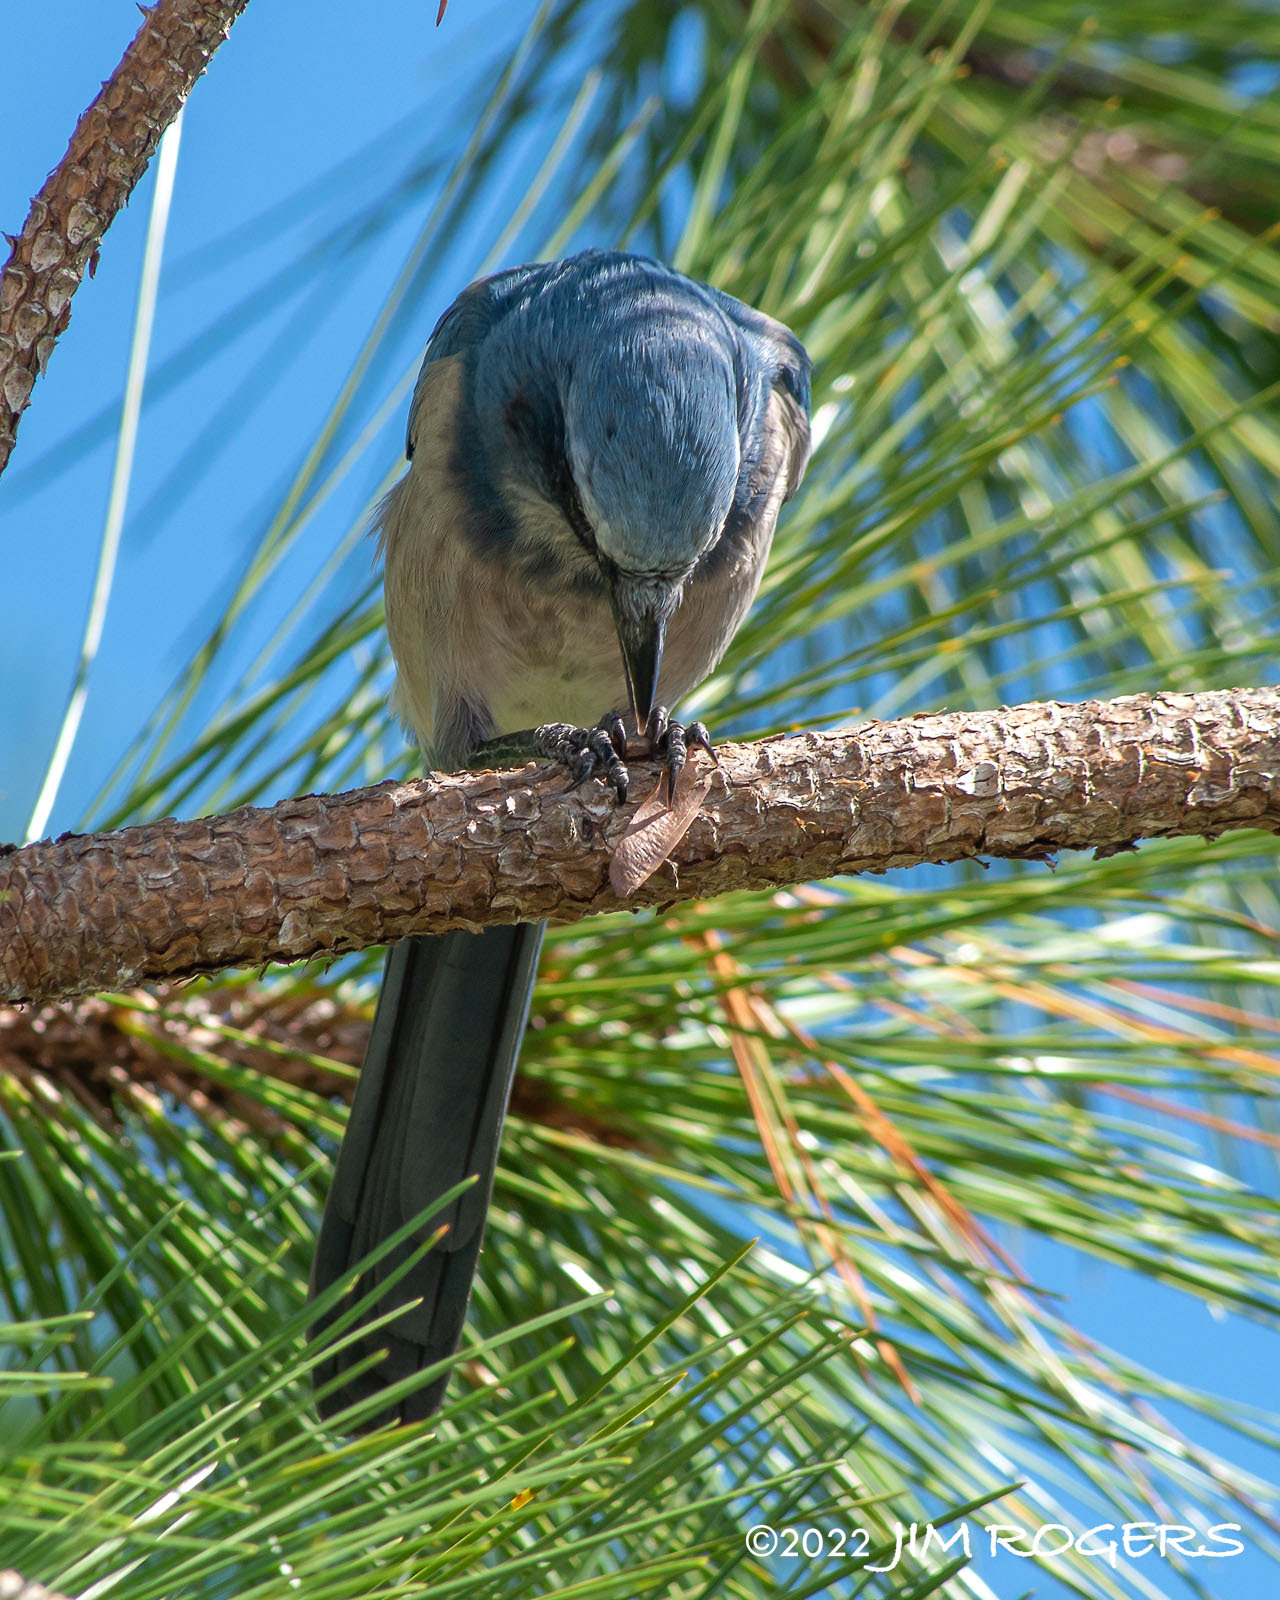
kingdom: Animalia
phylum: Chordata
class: Aves
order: Passeriformes
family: Corvidae
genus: Aphelocoma
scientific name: Aphelocoma coerulescens
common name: Florida scrub jay
